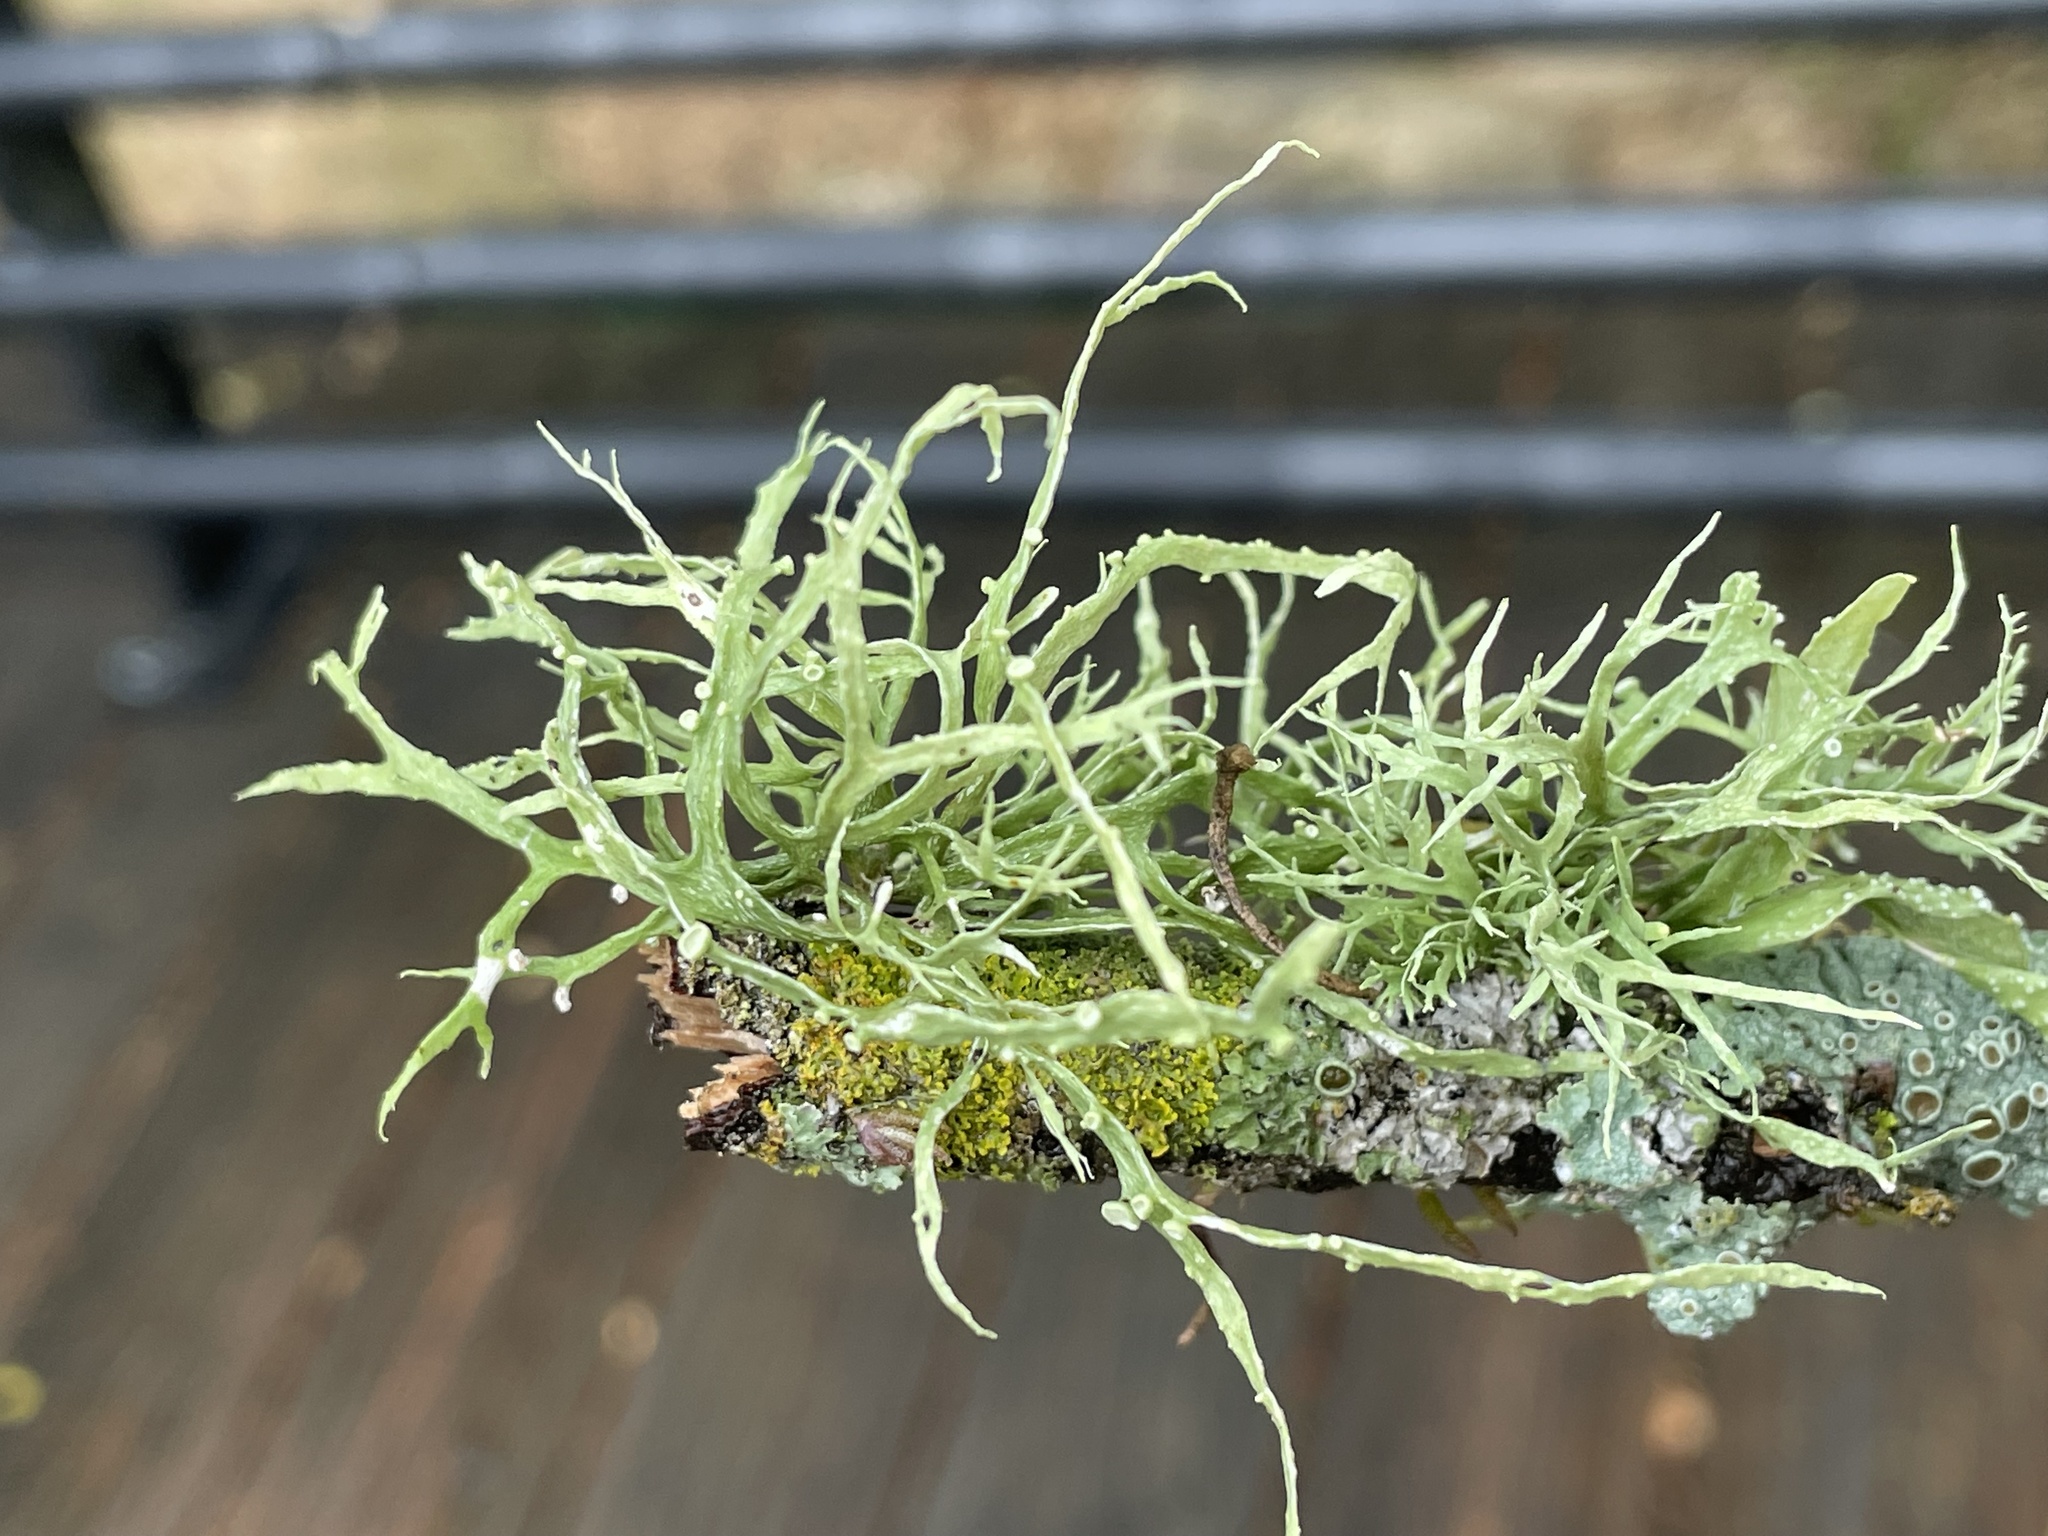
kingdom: Fungi
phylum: Ascomycota
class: Lecanoromycetes
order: Lecanorales
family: Ramalinaceae
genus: Ramalina
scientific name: Ramalina farinacea
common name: Farinose cartilage lichen
